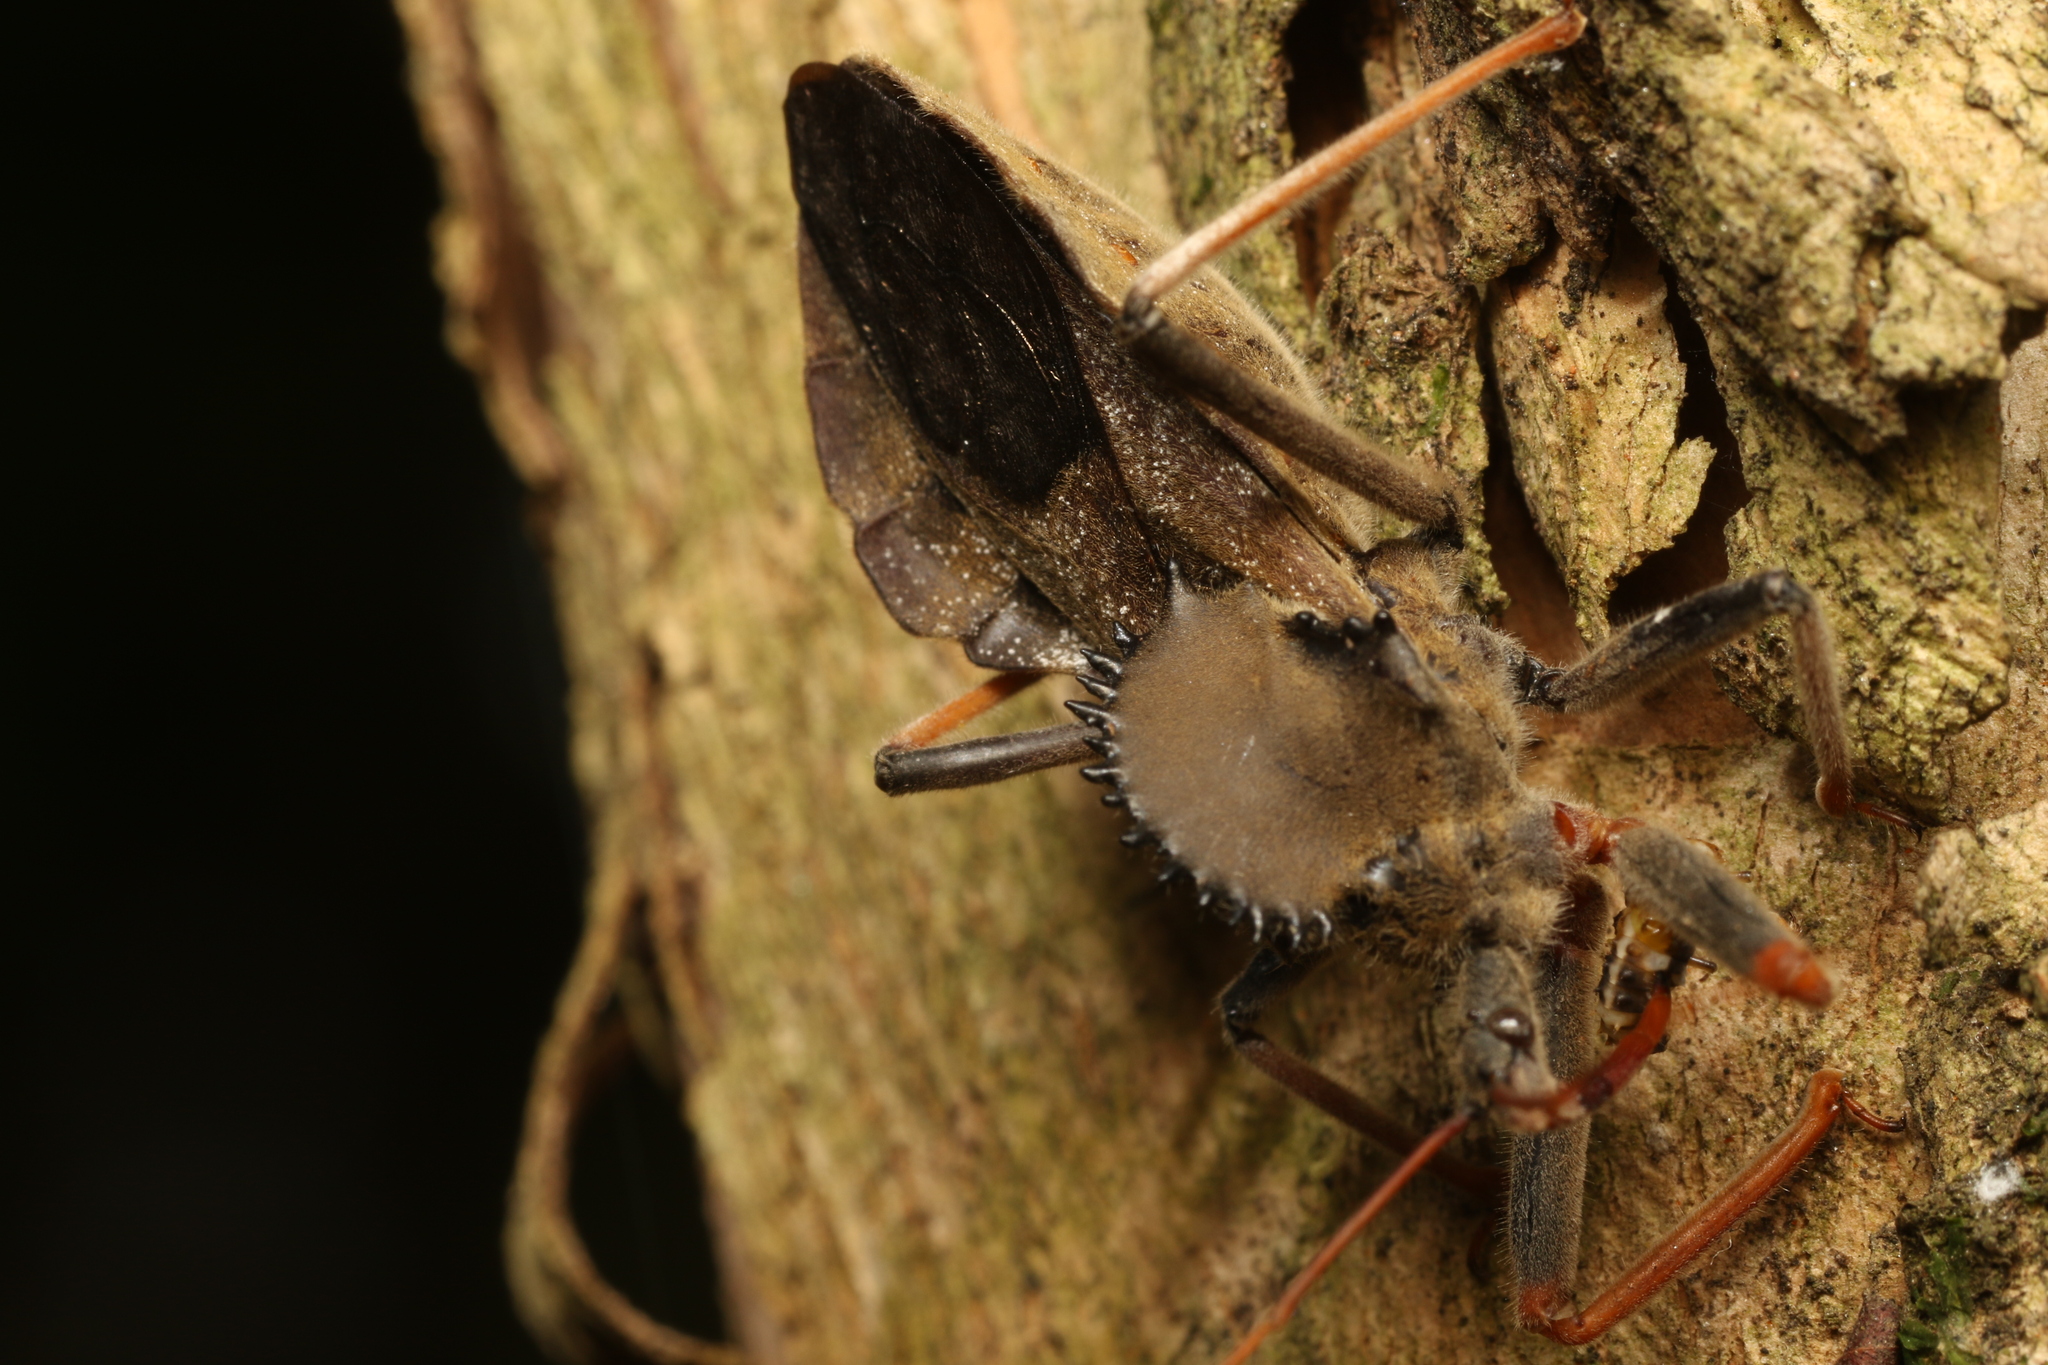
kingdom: Animalia
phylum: Arthropoda
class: Insecta
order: Hemiptera
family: Reduviidae
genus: Arilus
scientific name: Arilus carinatus
